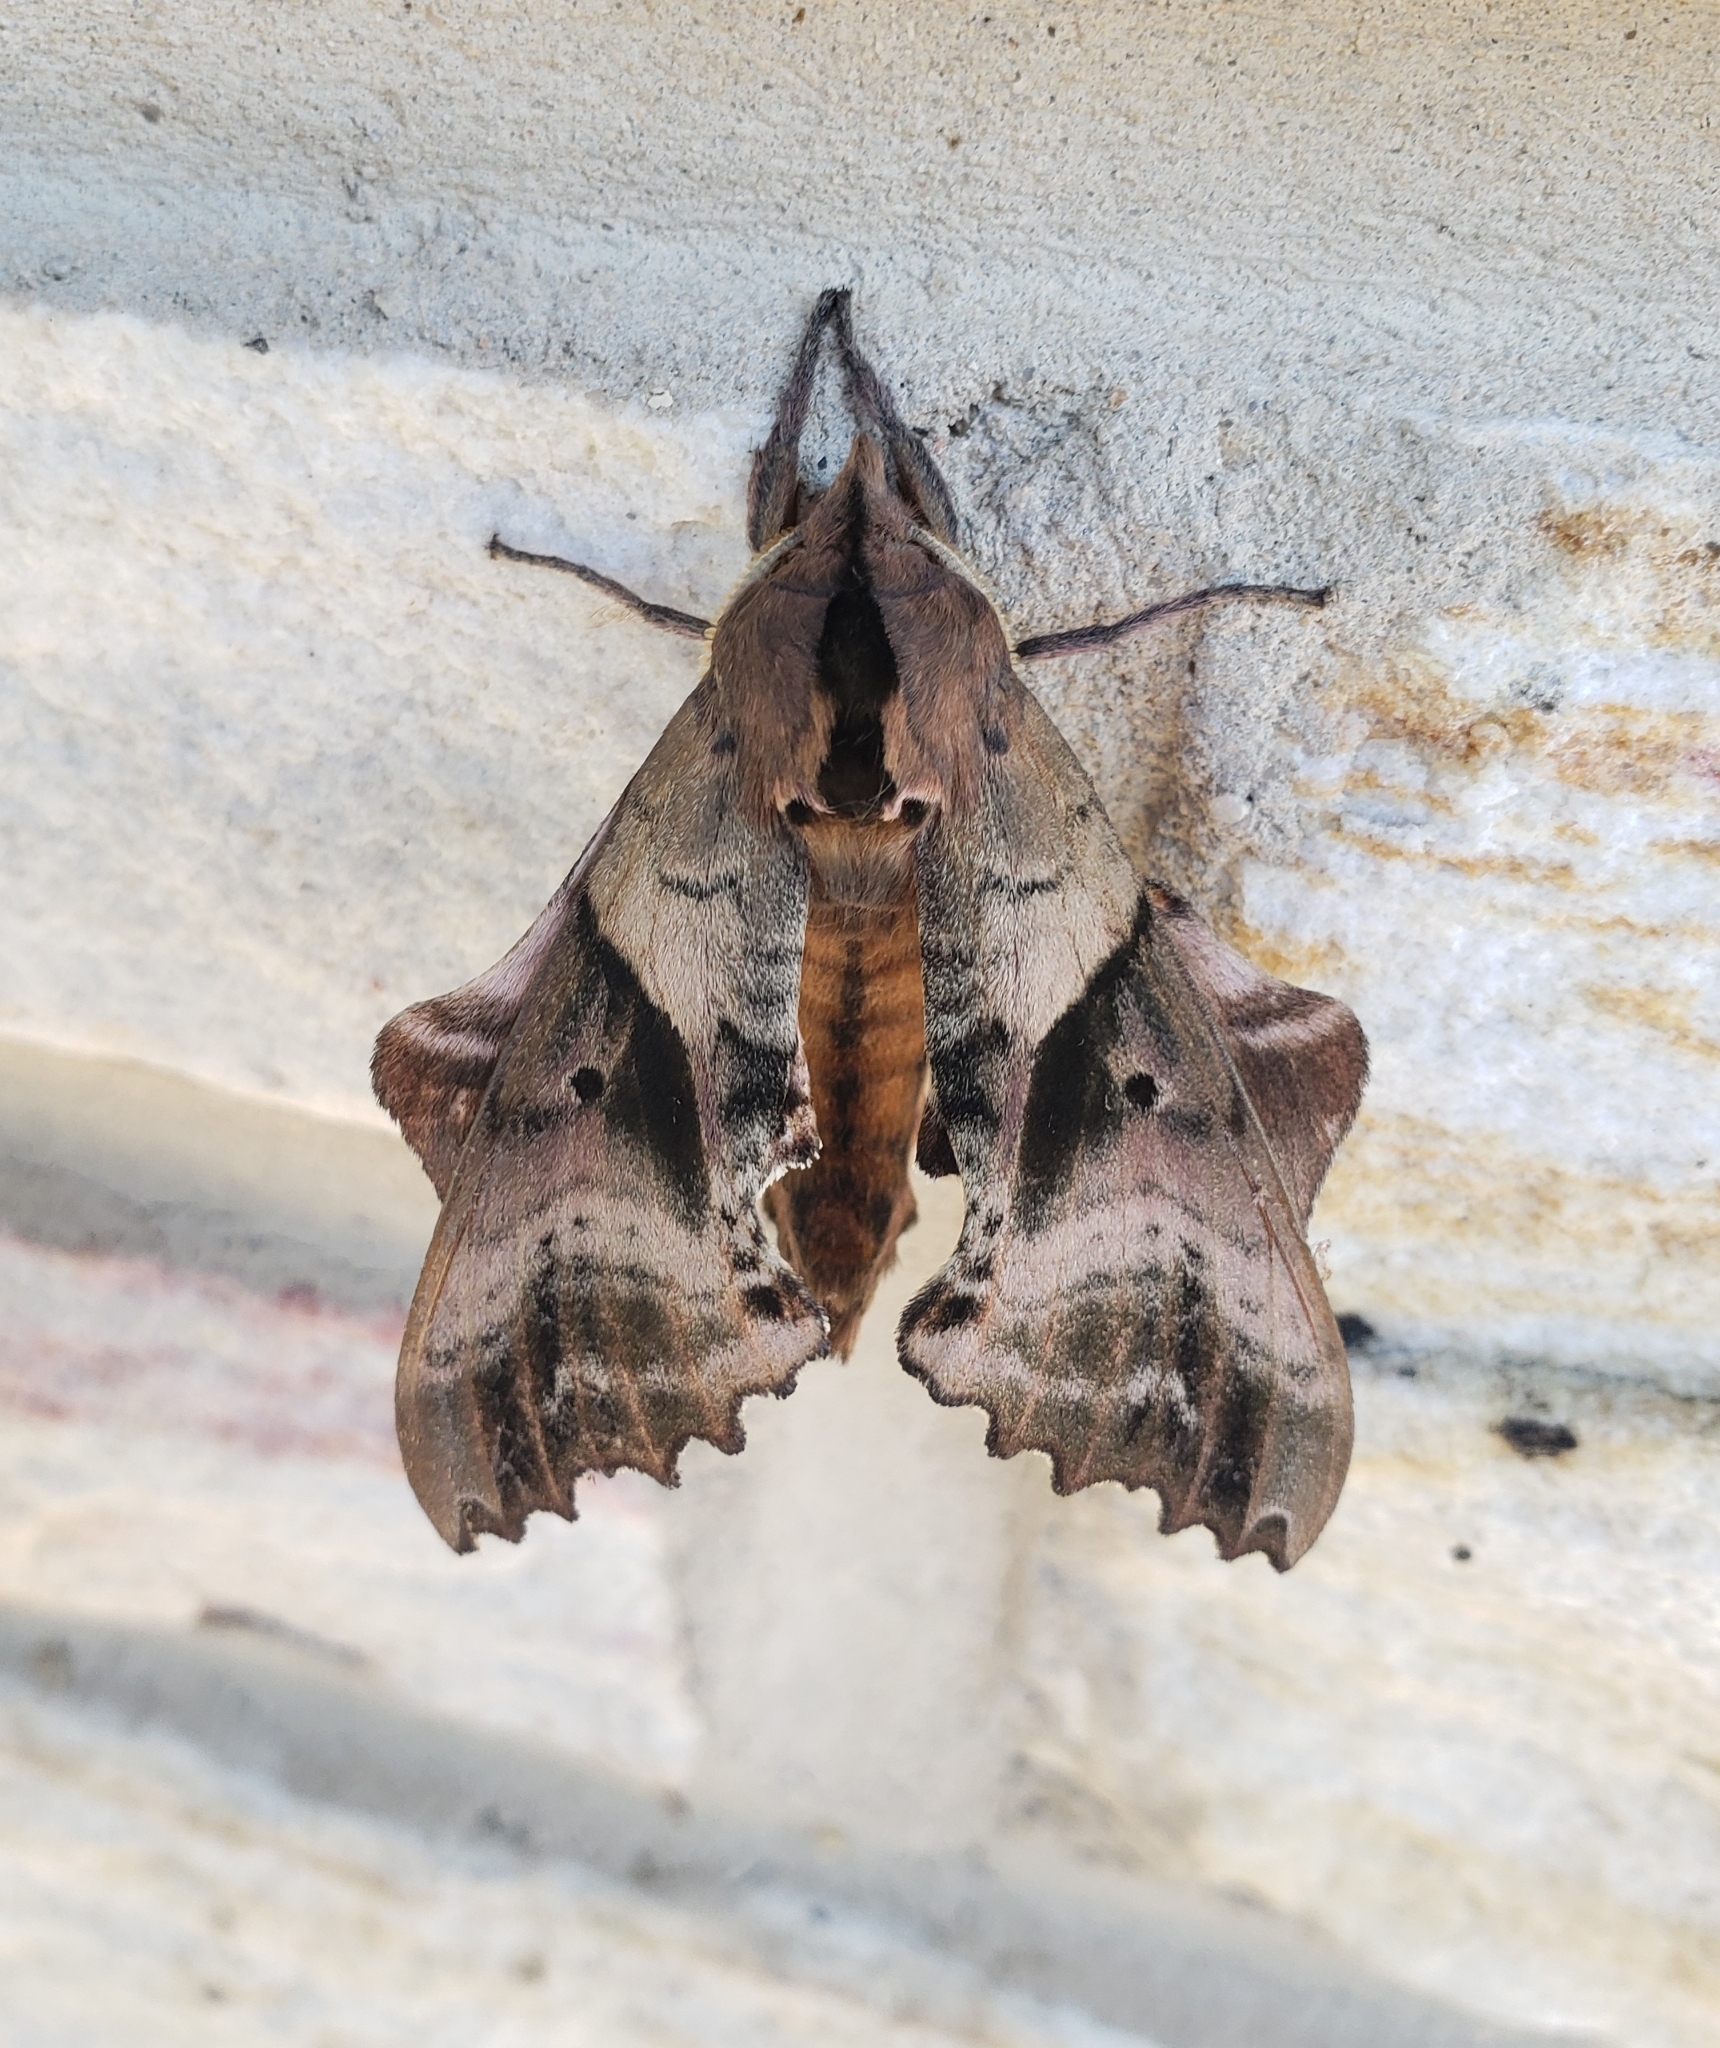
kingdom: Animalia
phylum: Arthropoda
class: Insecta
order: Lepidoptera
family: Sphingidae
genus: Paonias
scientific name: Paonias excaecata
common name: Blind-eyed sphinx
